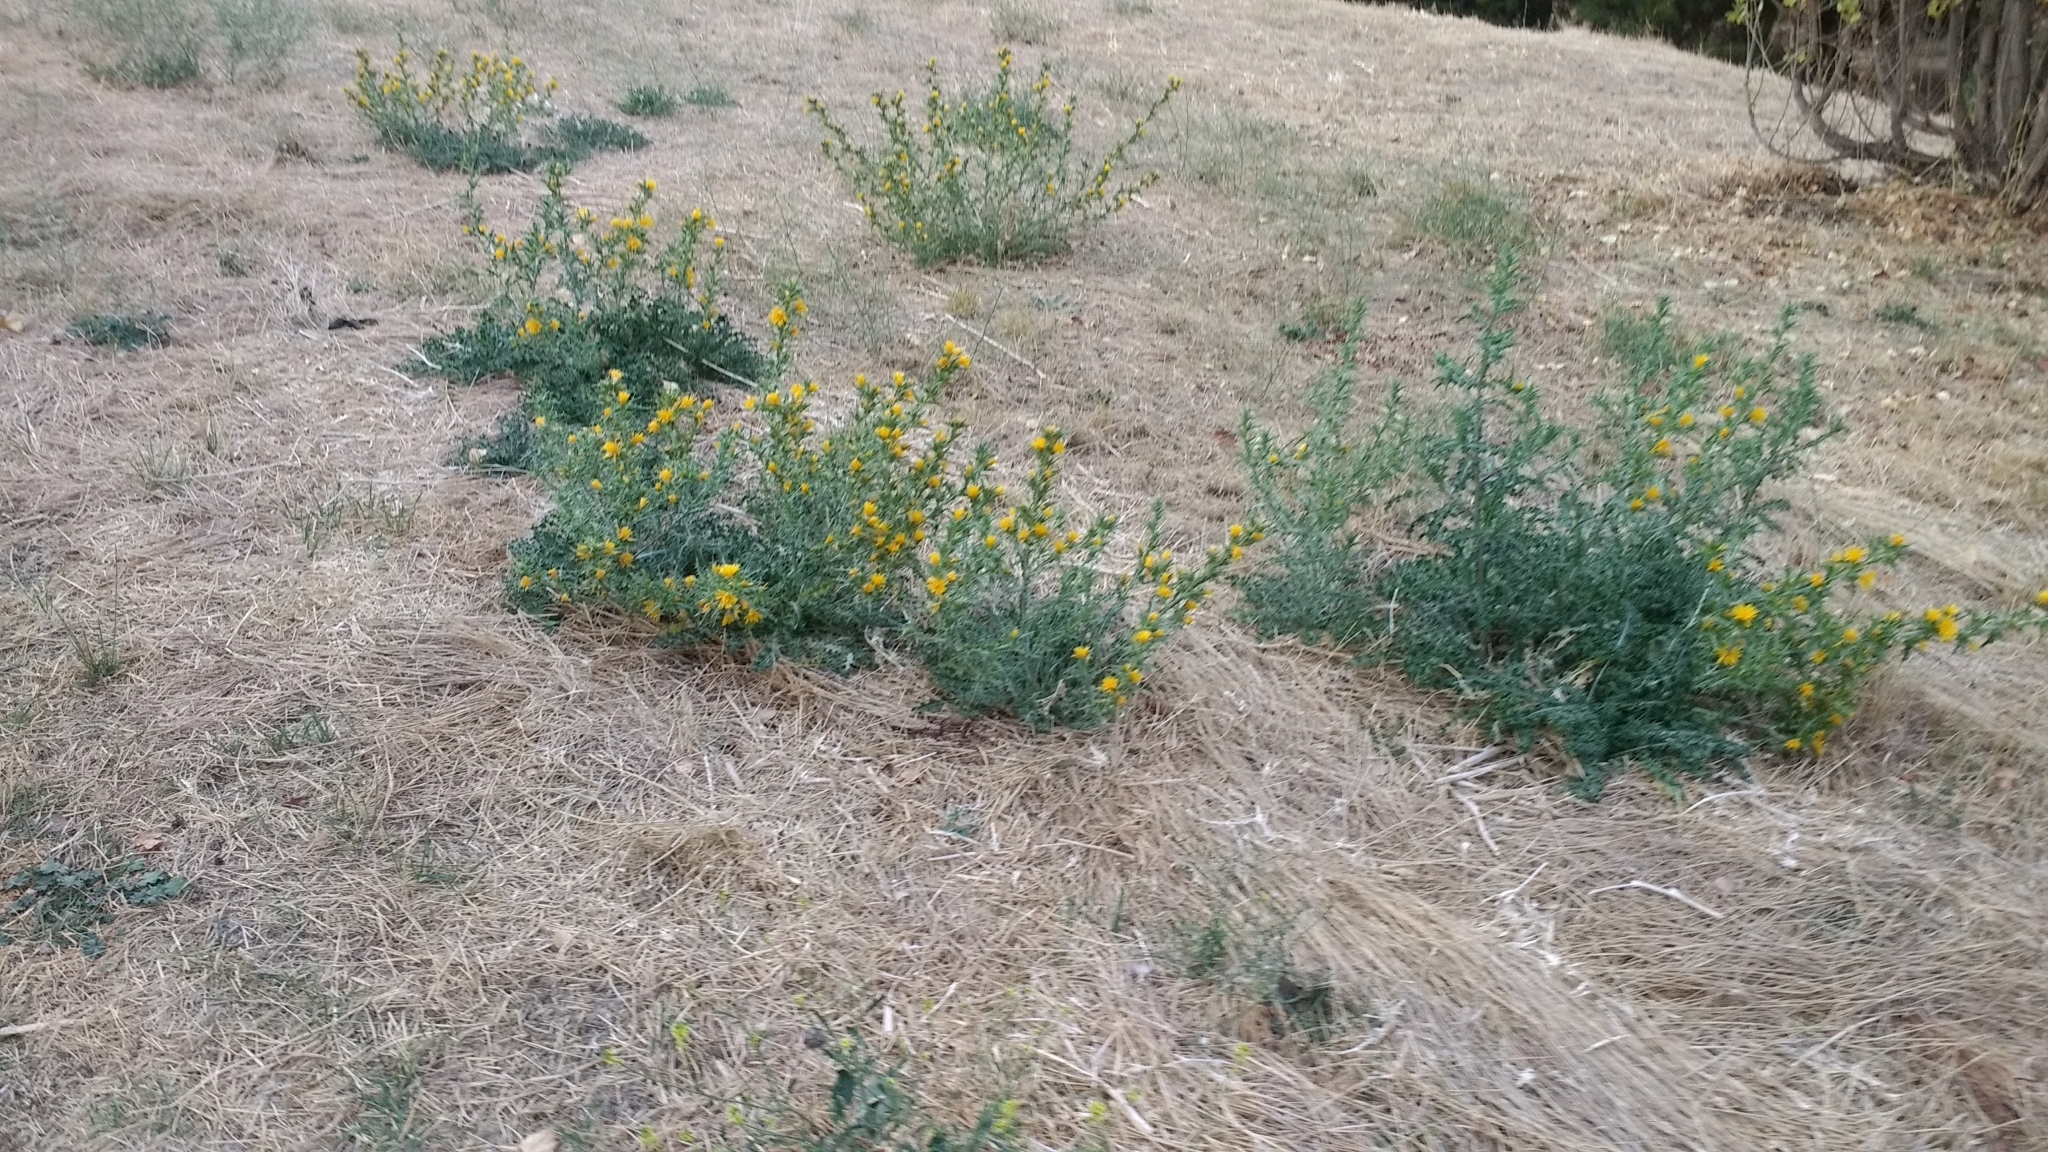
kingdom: Plantae
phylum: Tracheophyta
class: Magnoliopsida
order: Asterales
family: Asteraceae
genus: Scolymus
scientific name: Scolymus hispanicus
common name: Golden thistle
